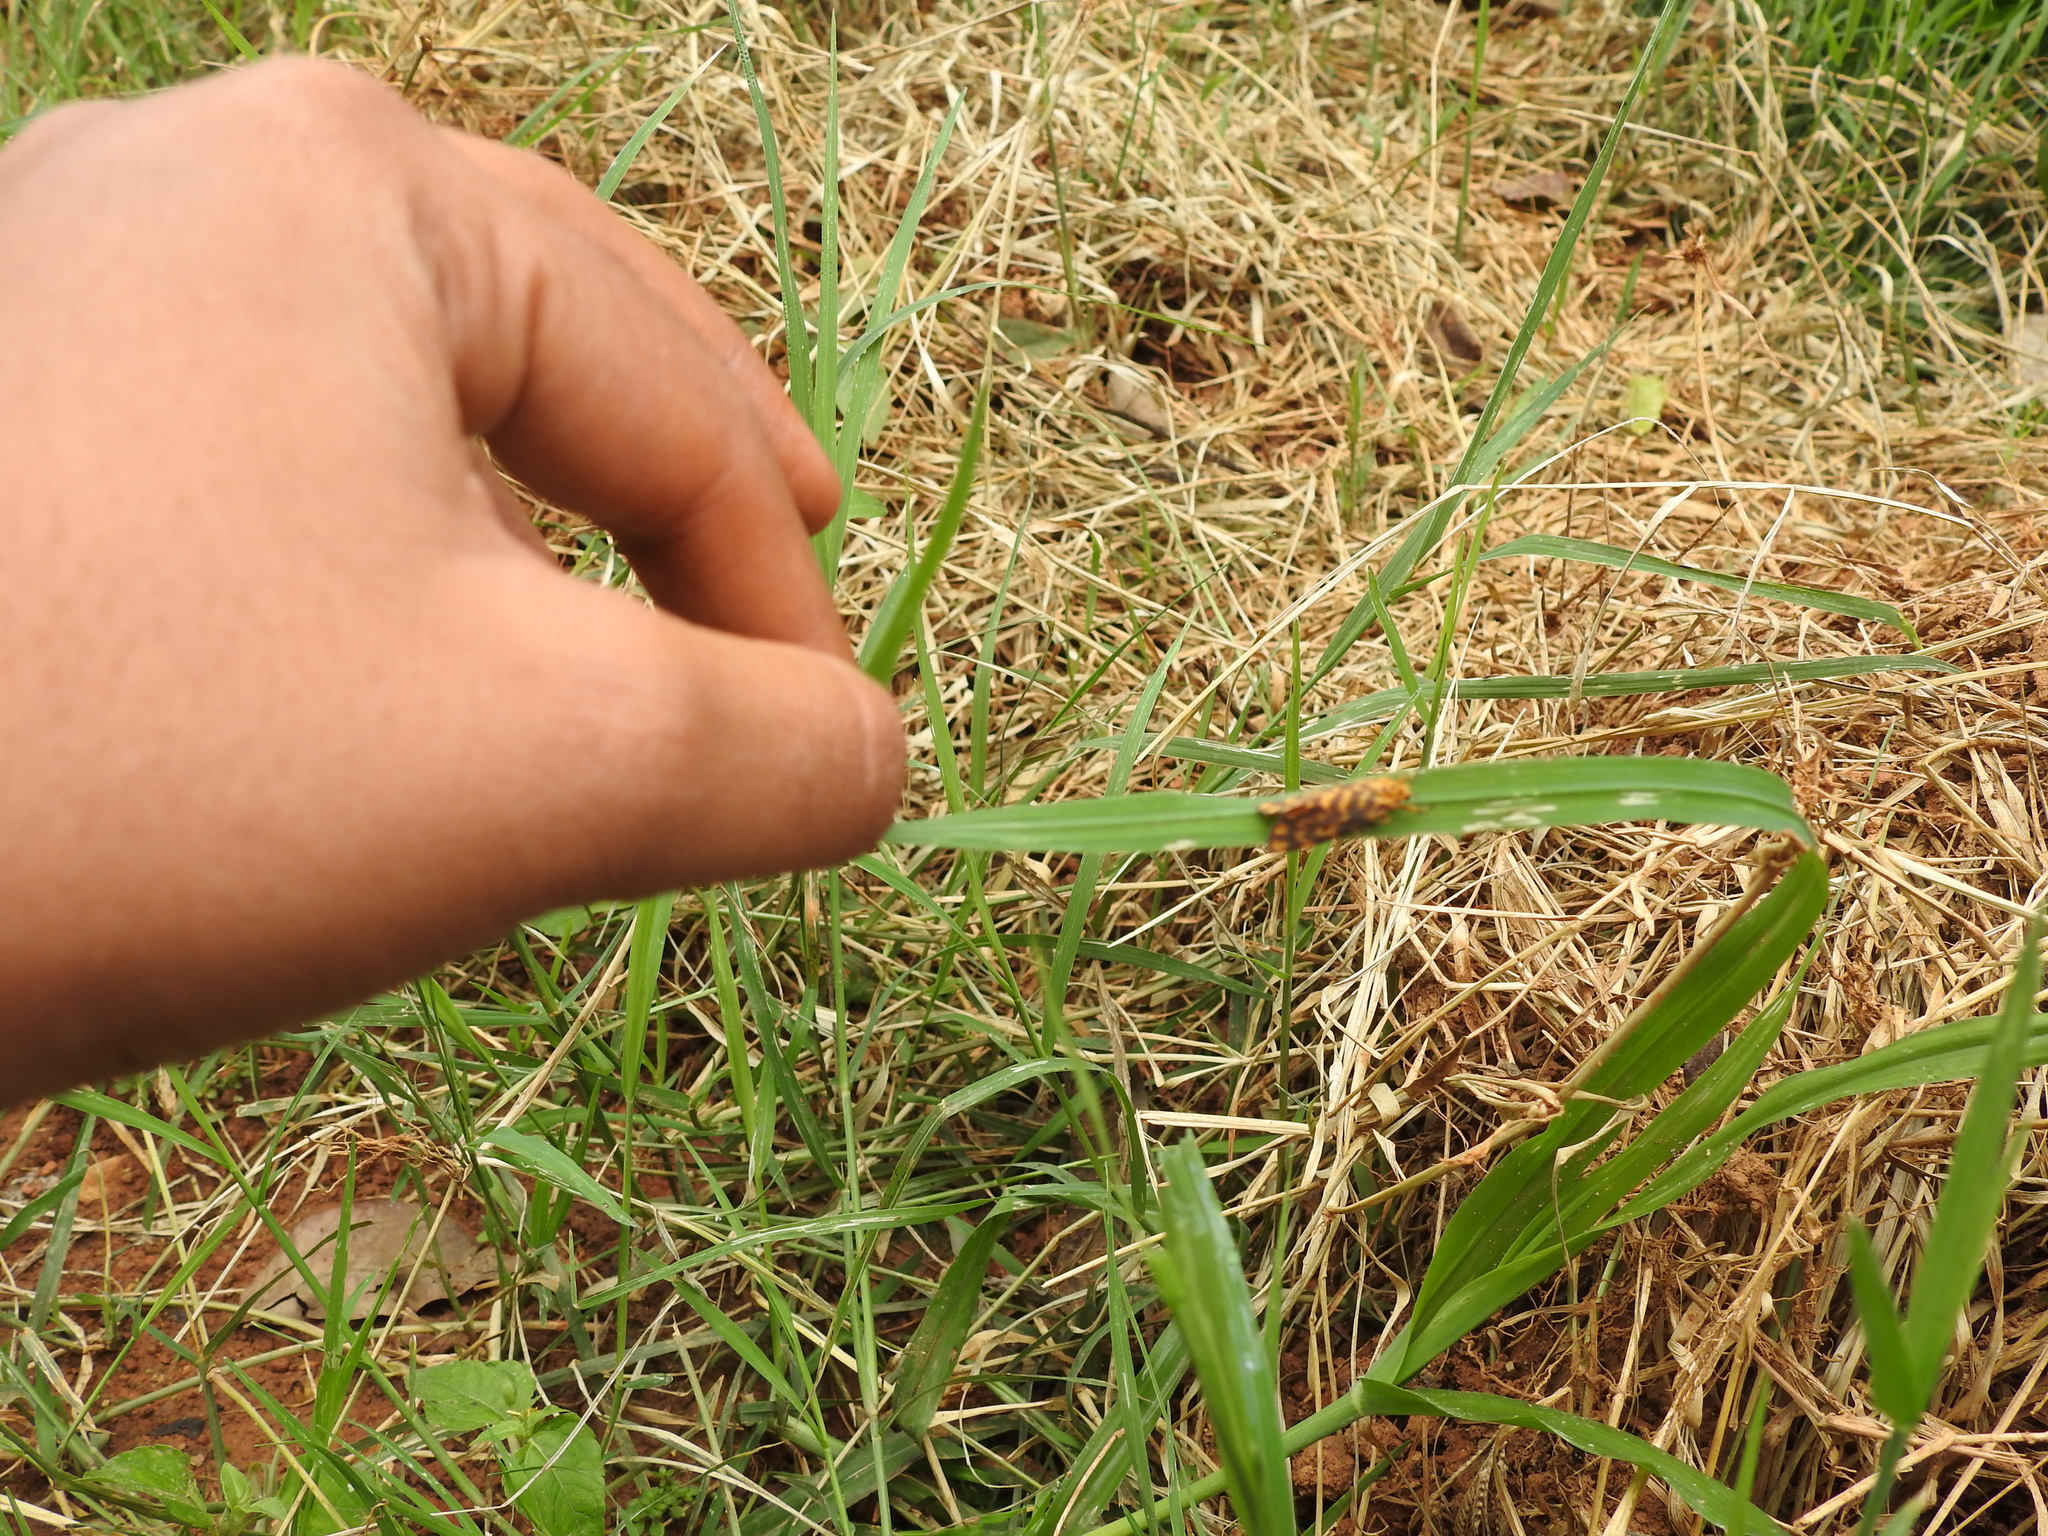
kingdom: Animalia
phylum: Arthropoda
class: Insecta
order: Lepidoptera
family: Erebidae
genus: Nepita
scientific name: Nepita conferta
